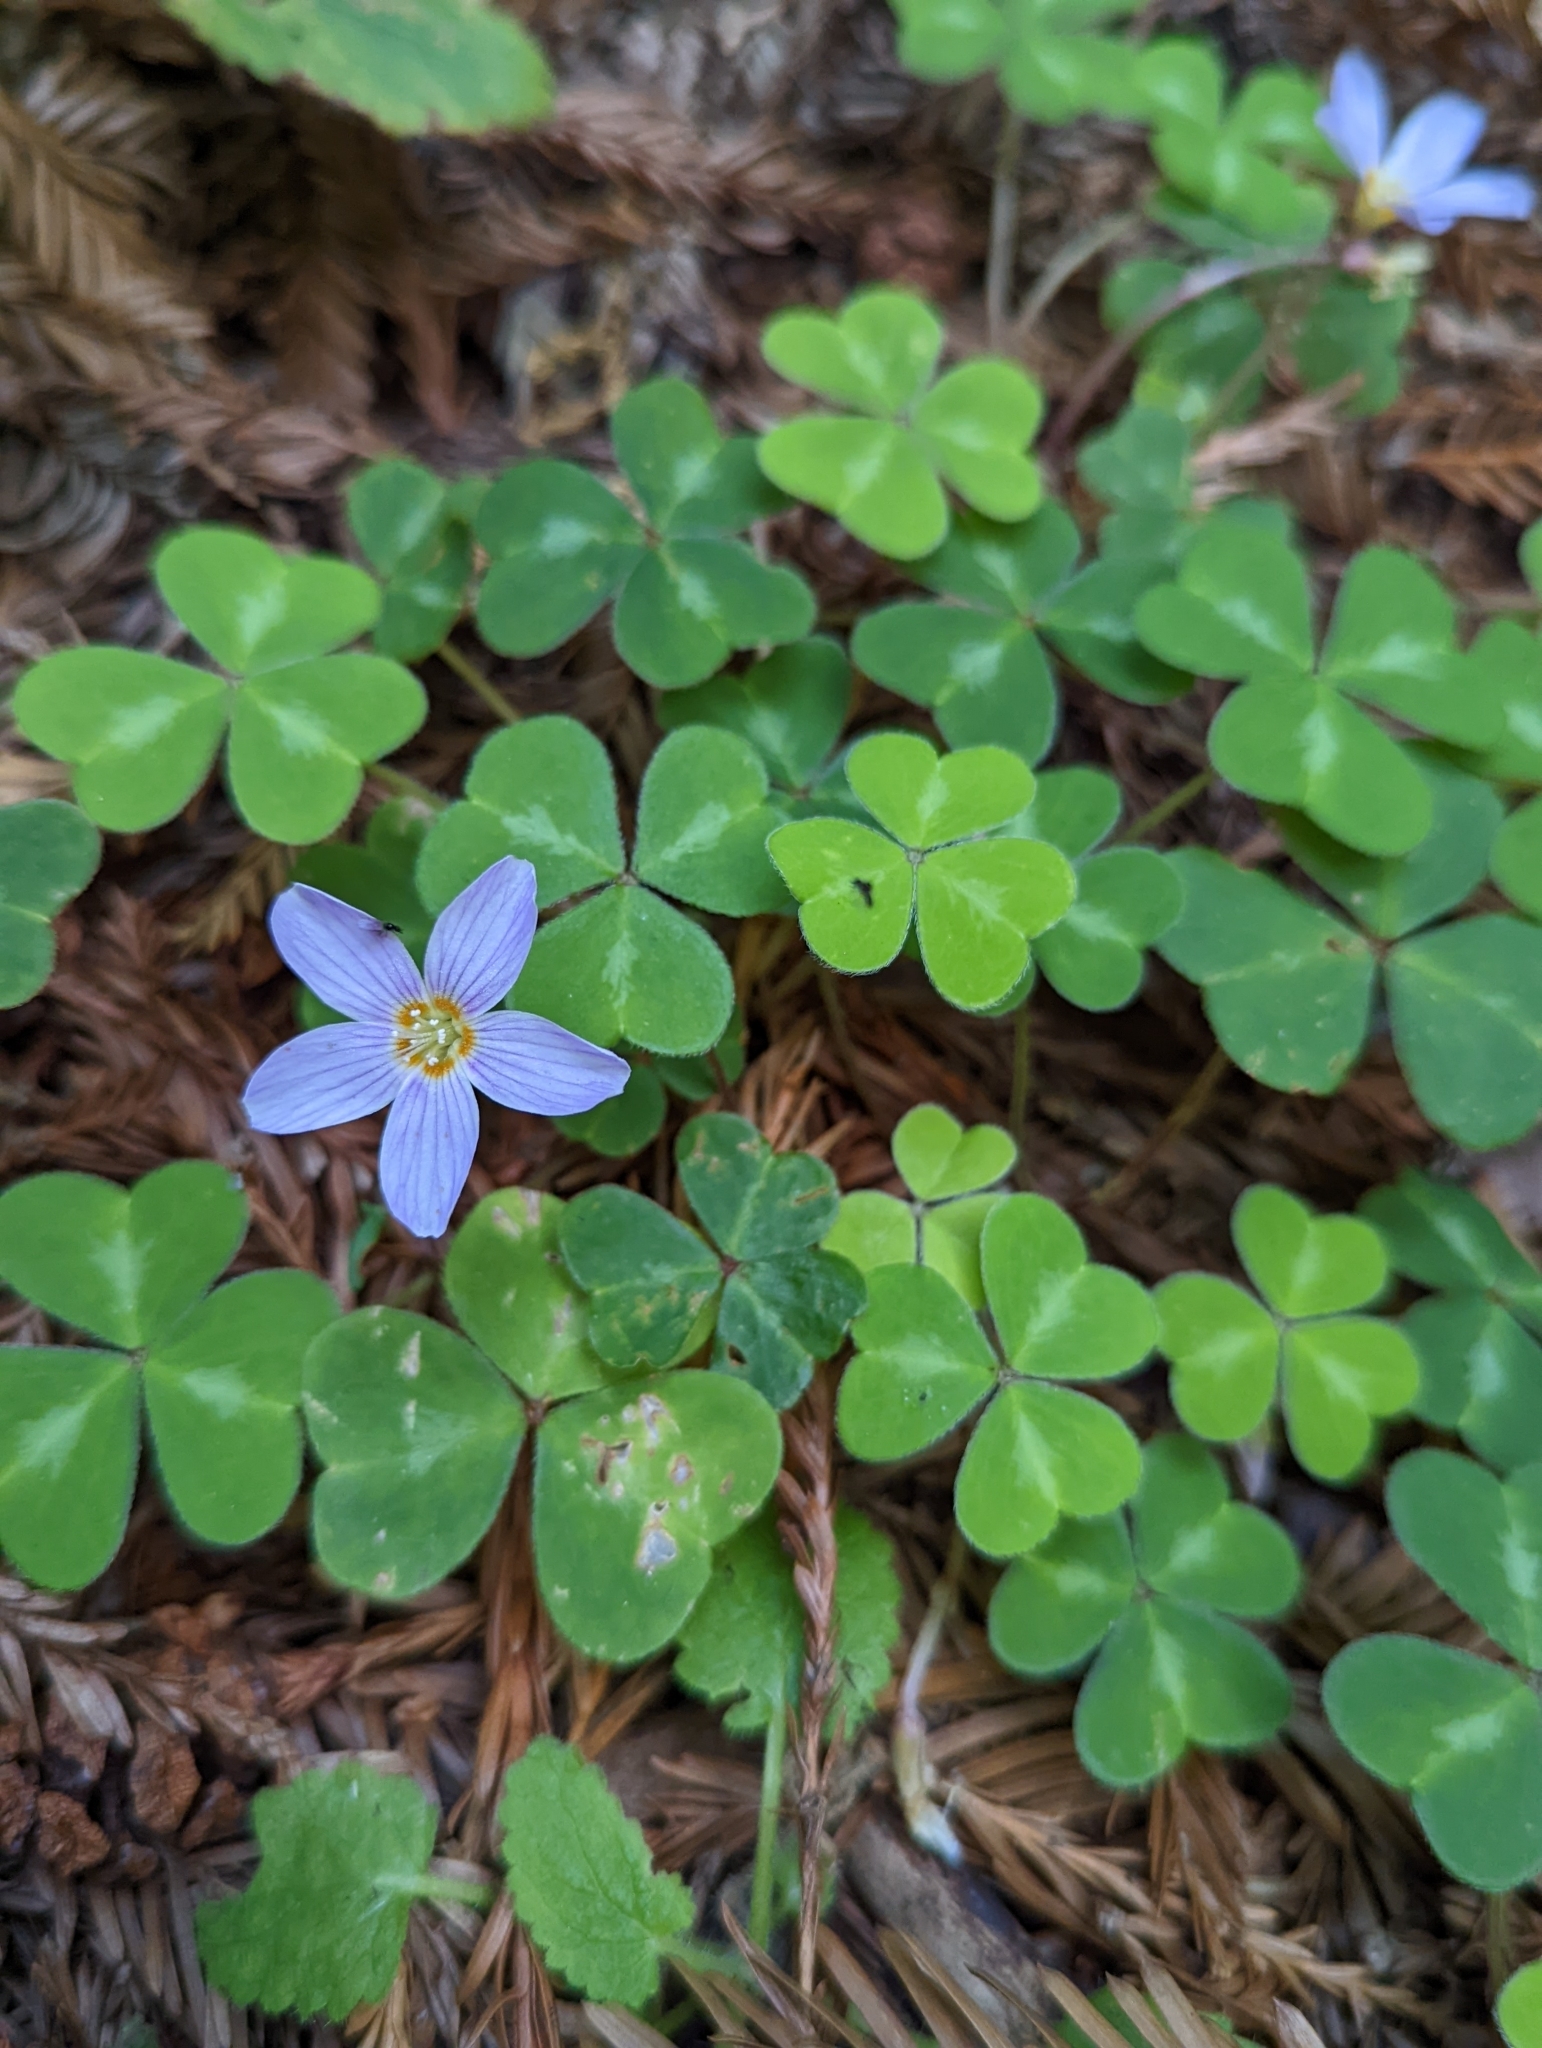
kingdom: Plantae
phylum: Tracheophyta
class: Magnoliopsida
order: Oxalidales
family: Oxalidaceae
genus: Oxalis
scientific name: Oxalis oregana
